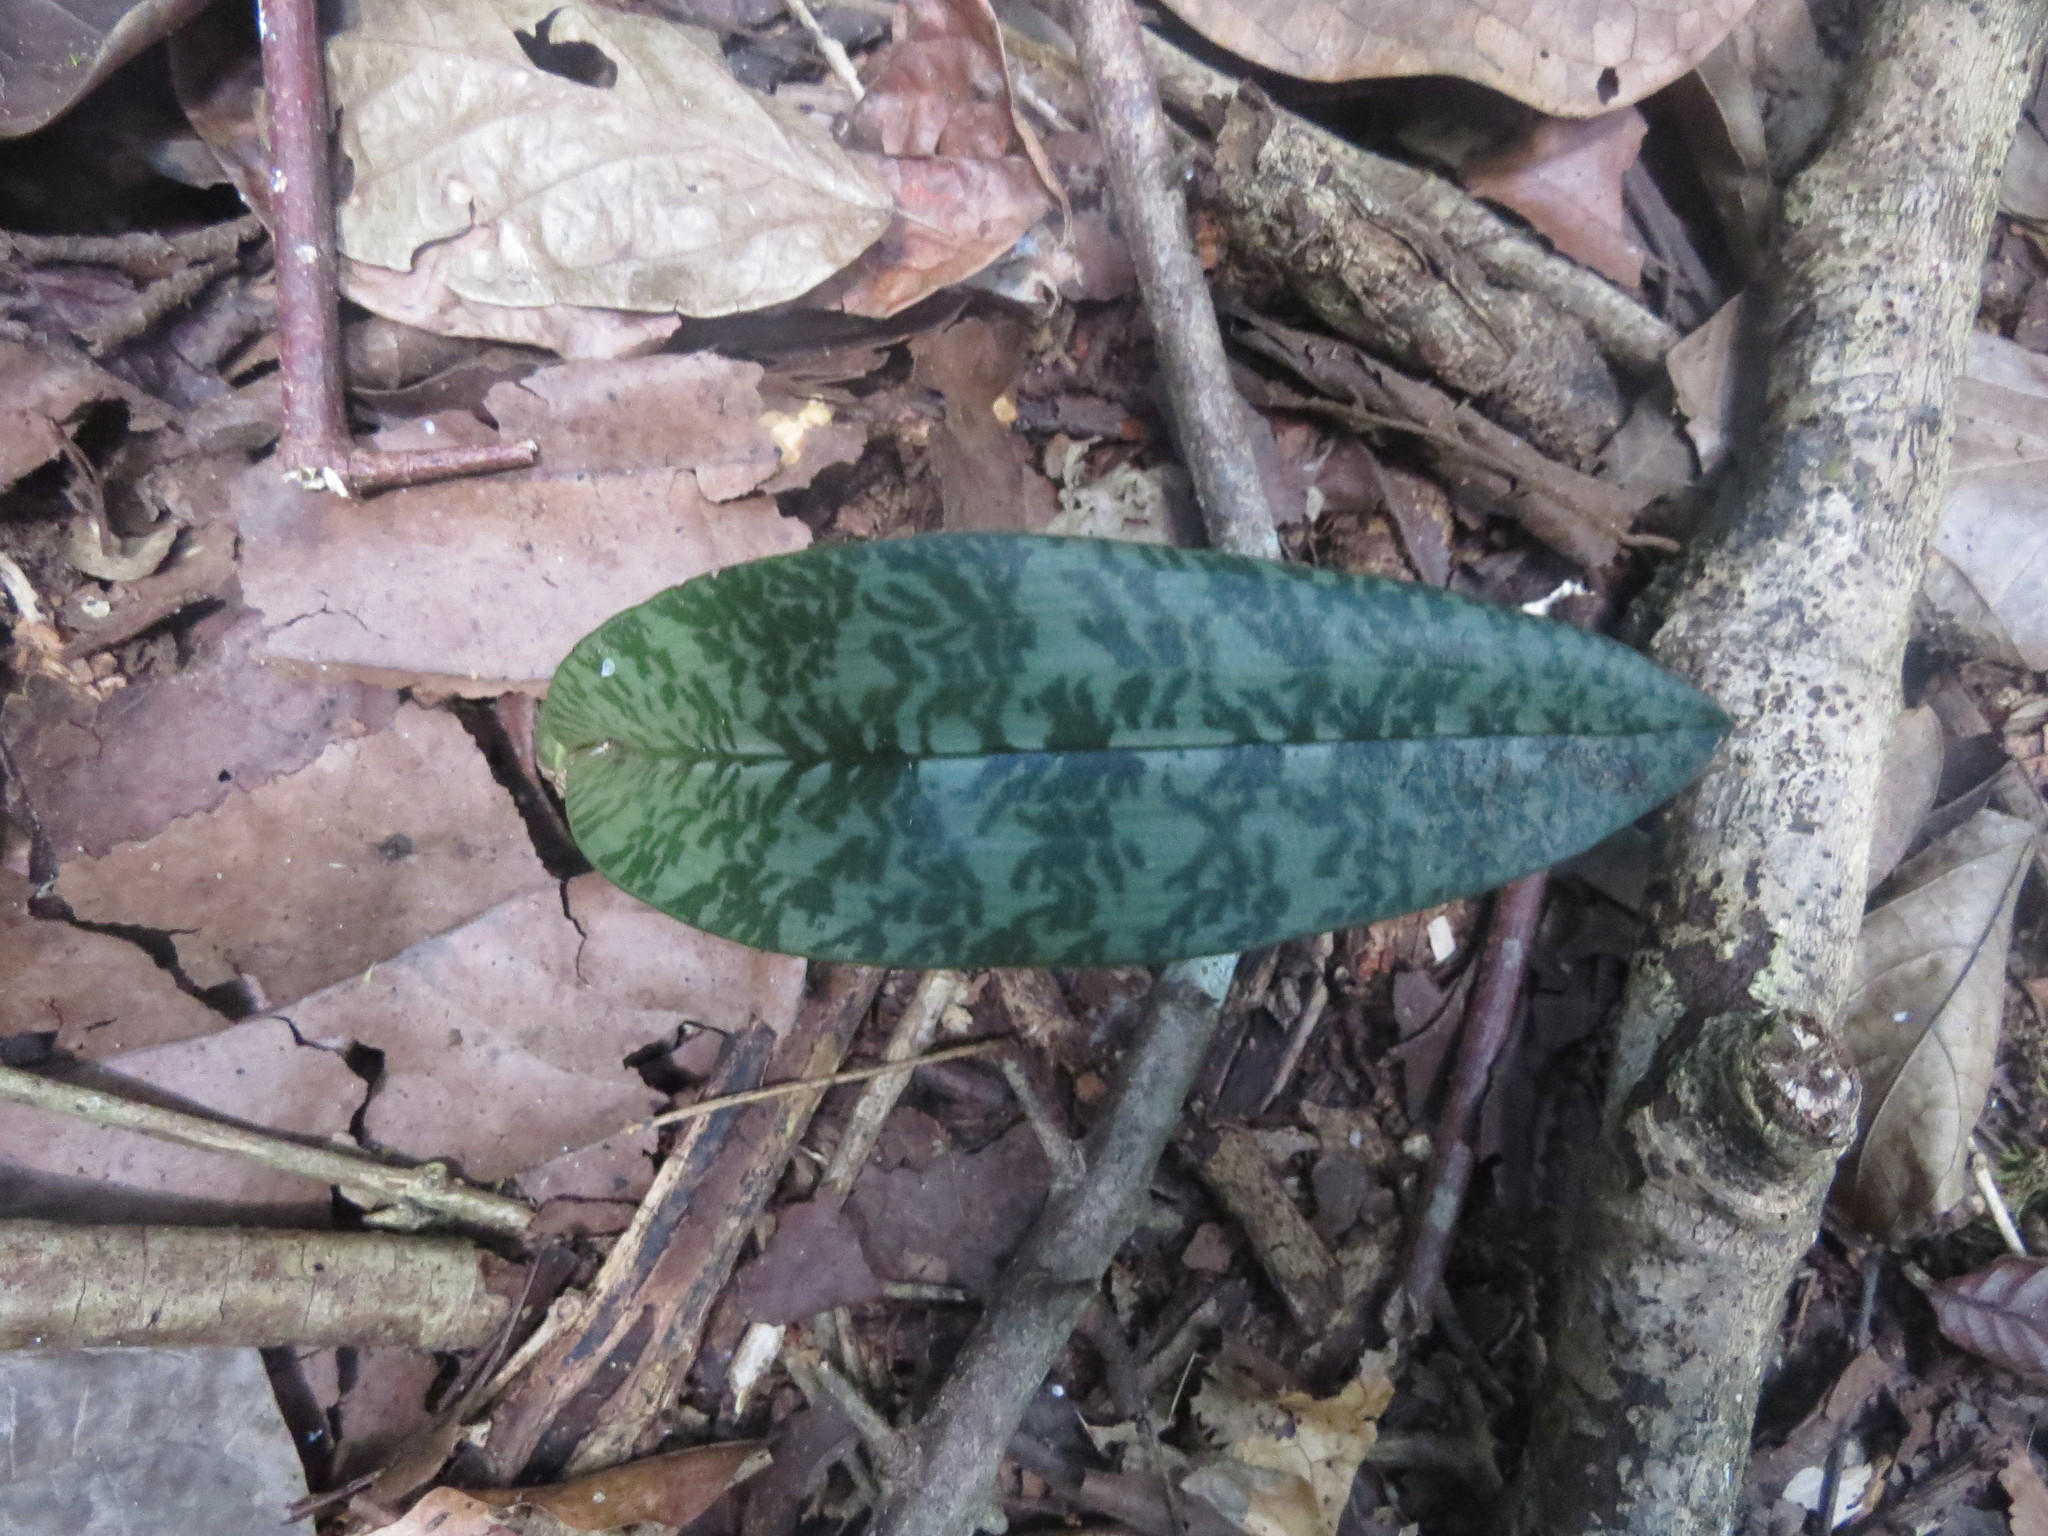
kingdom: Plantae
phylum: Tracheophyta
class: Liliopsida
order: Asparagales
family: Orchidaceae
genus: Eulophia
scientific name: Eulophia maculata
